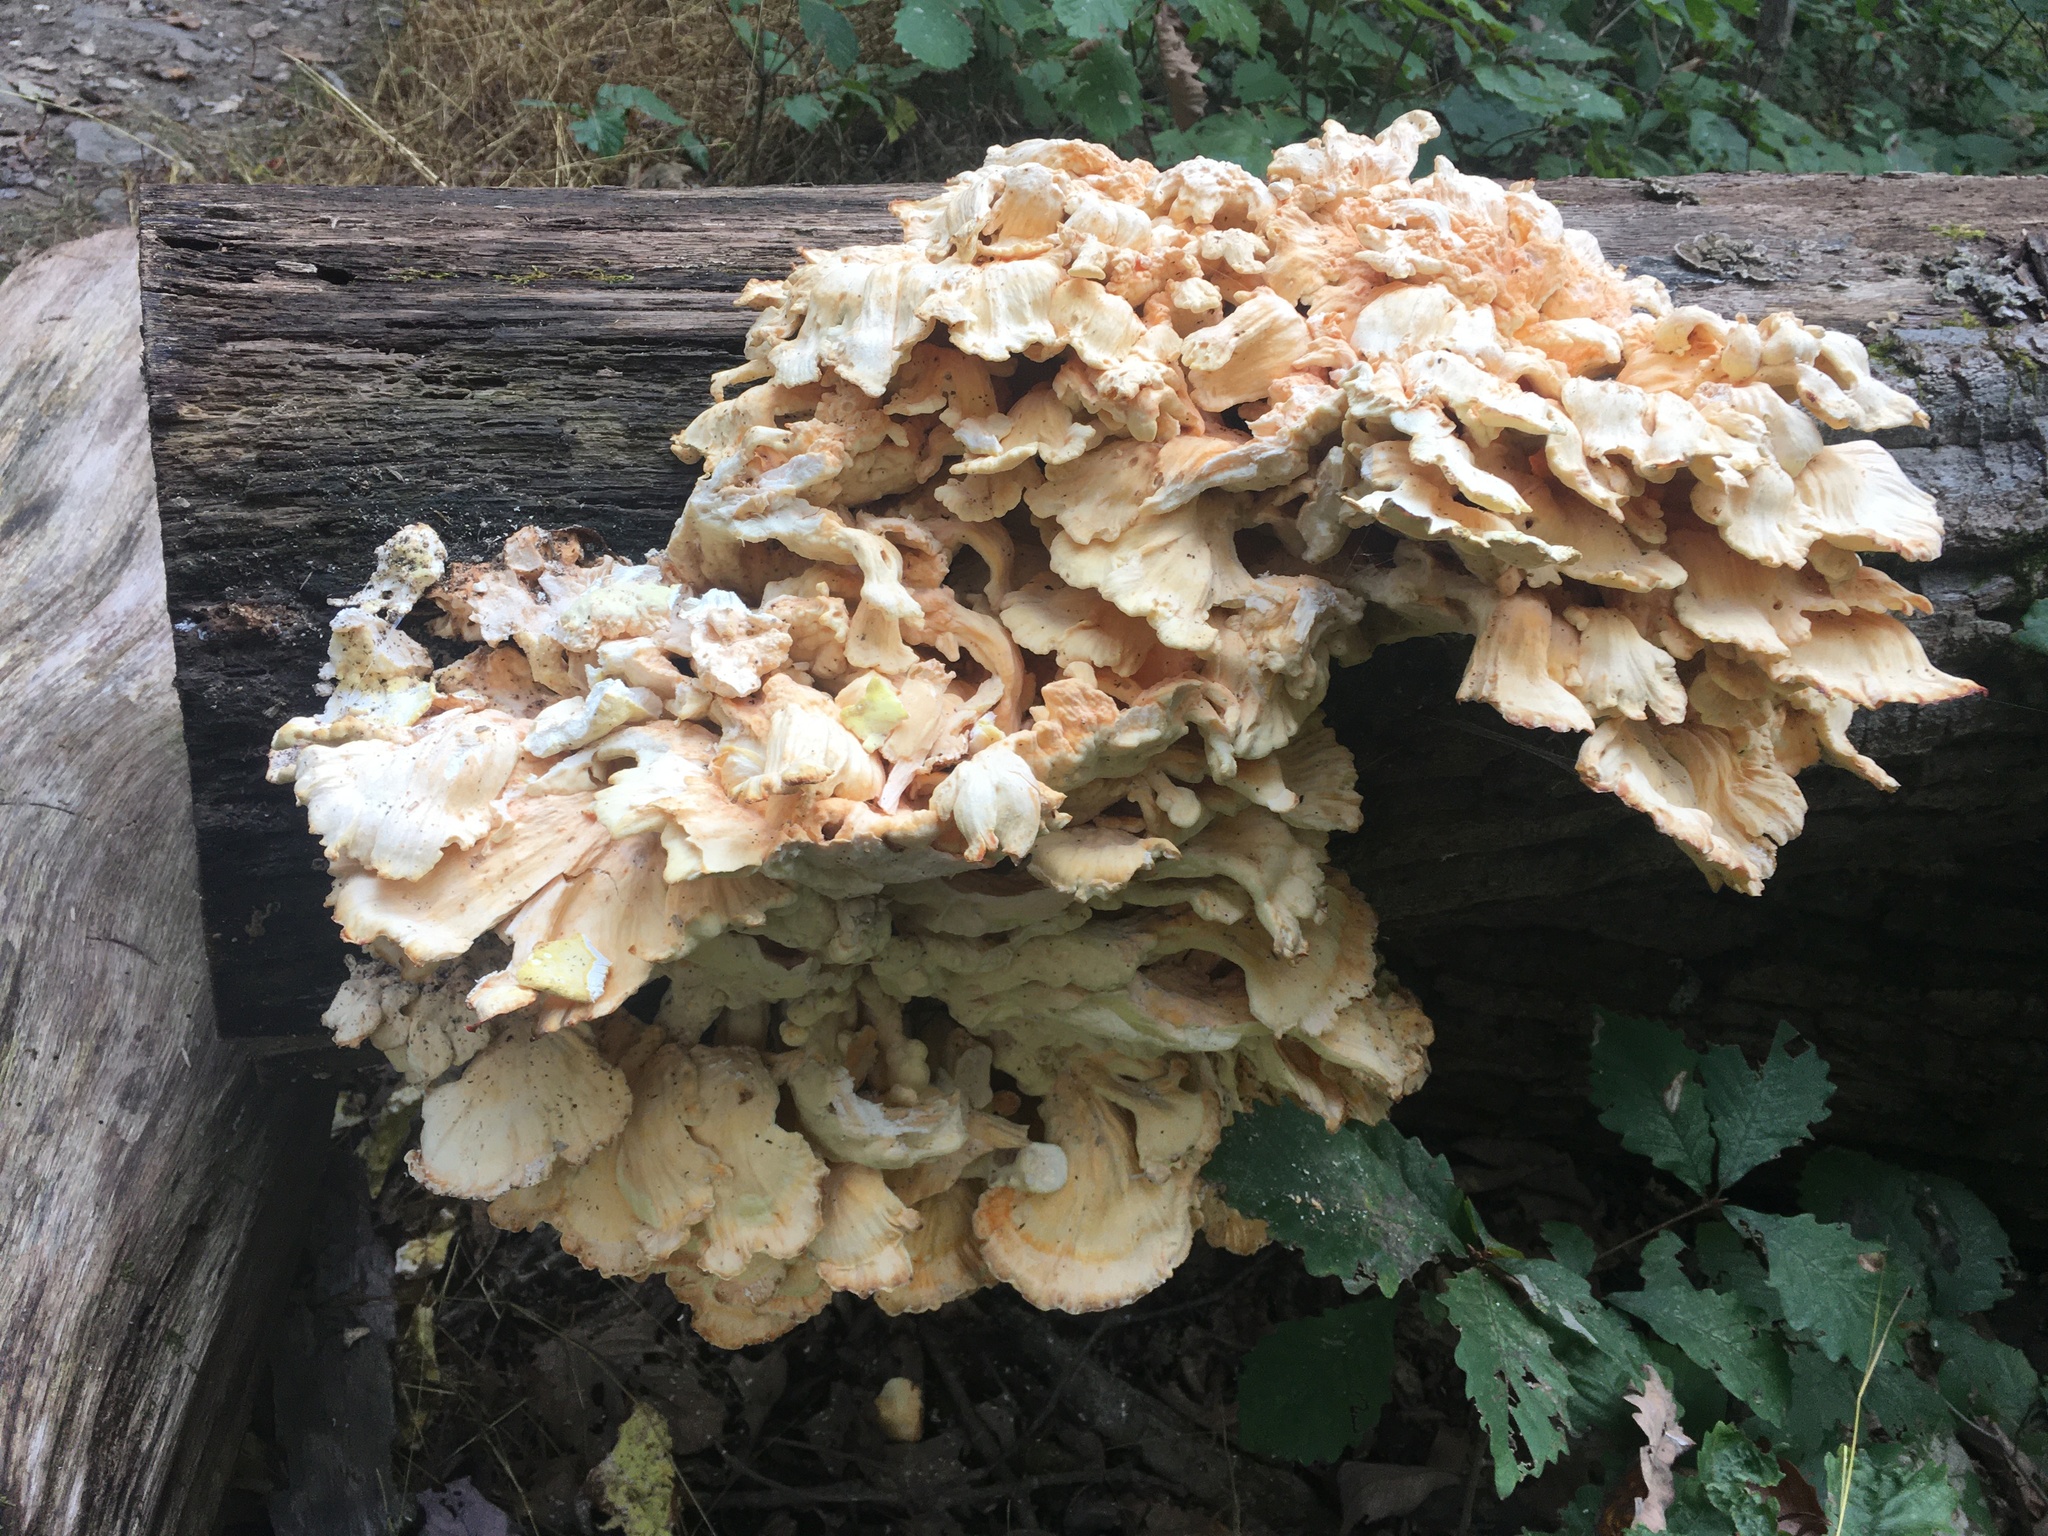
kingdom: Fungi
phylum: Basidiomycota
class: Agaricomycetes
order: Polyporales
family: Laetiporaceae
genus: Laetiporus
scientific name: Laetiporus sulphureus
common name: Chicken of the woods
